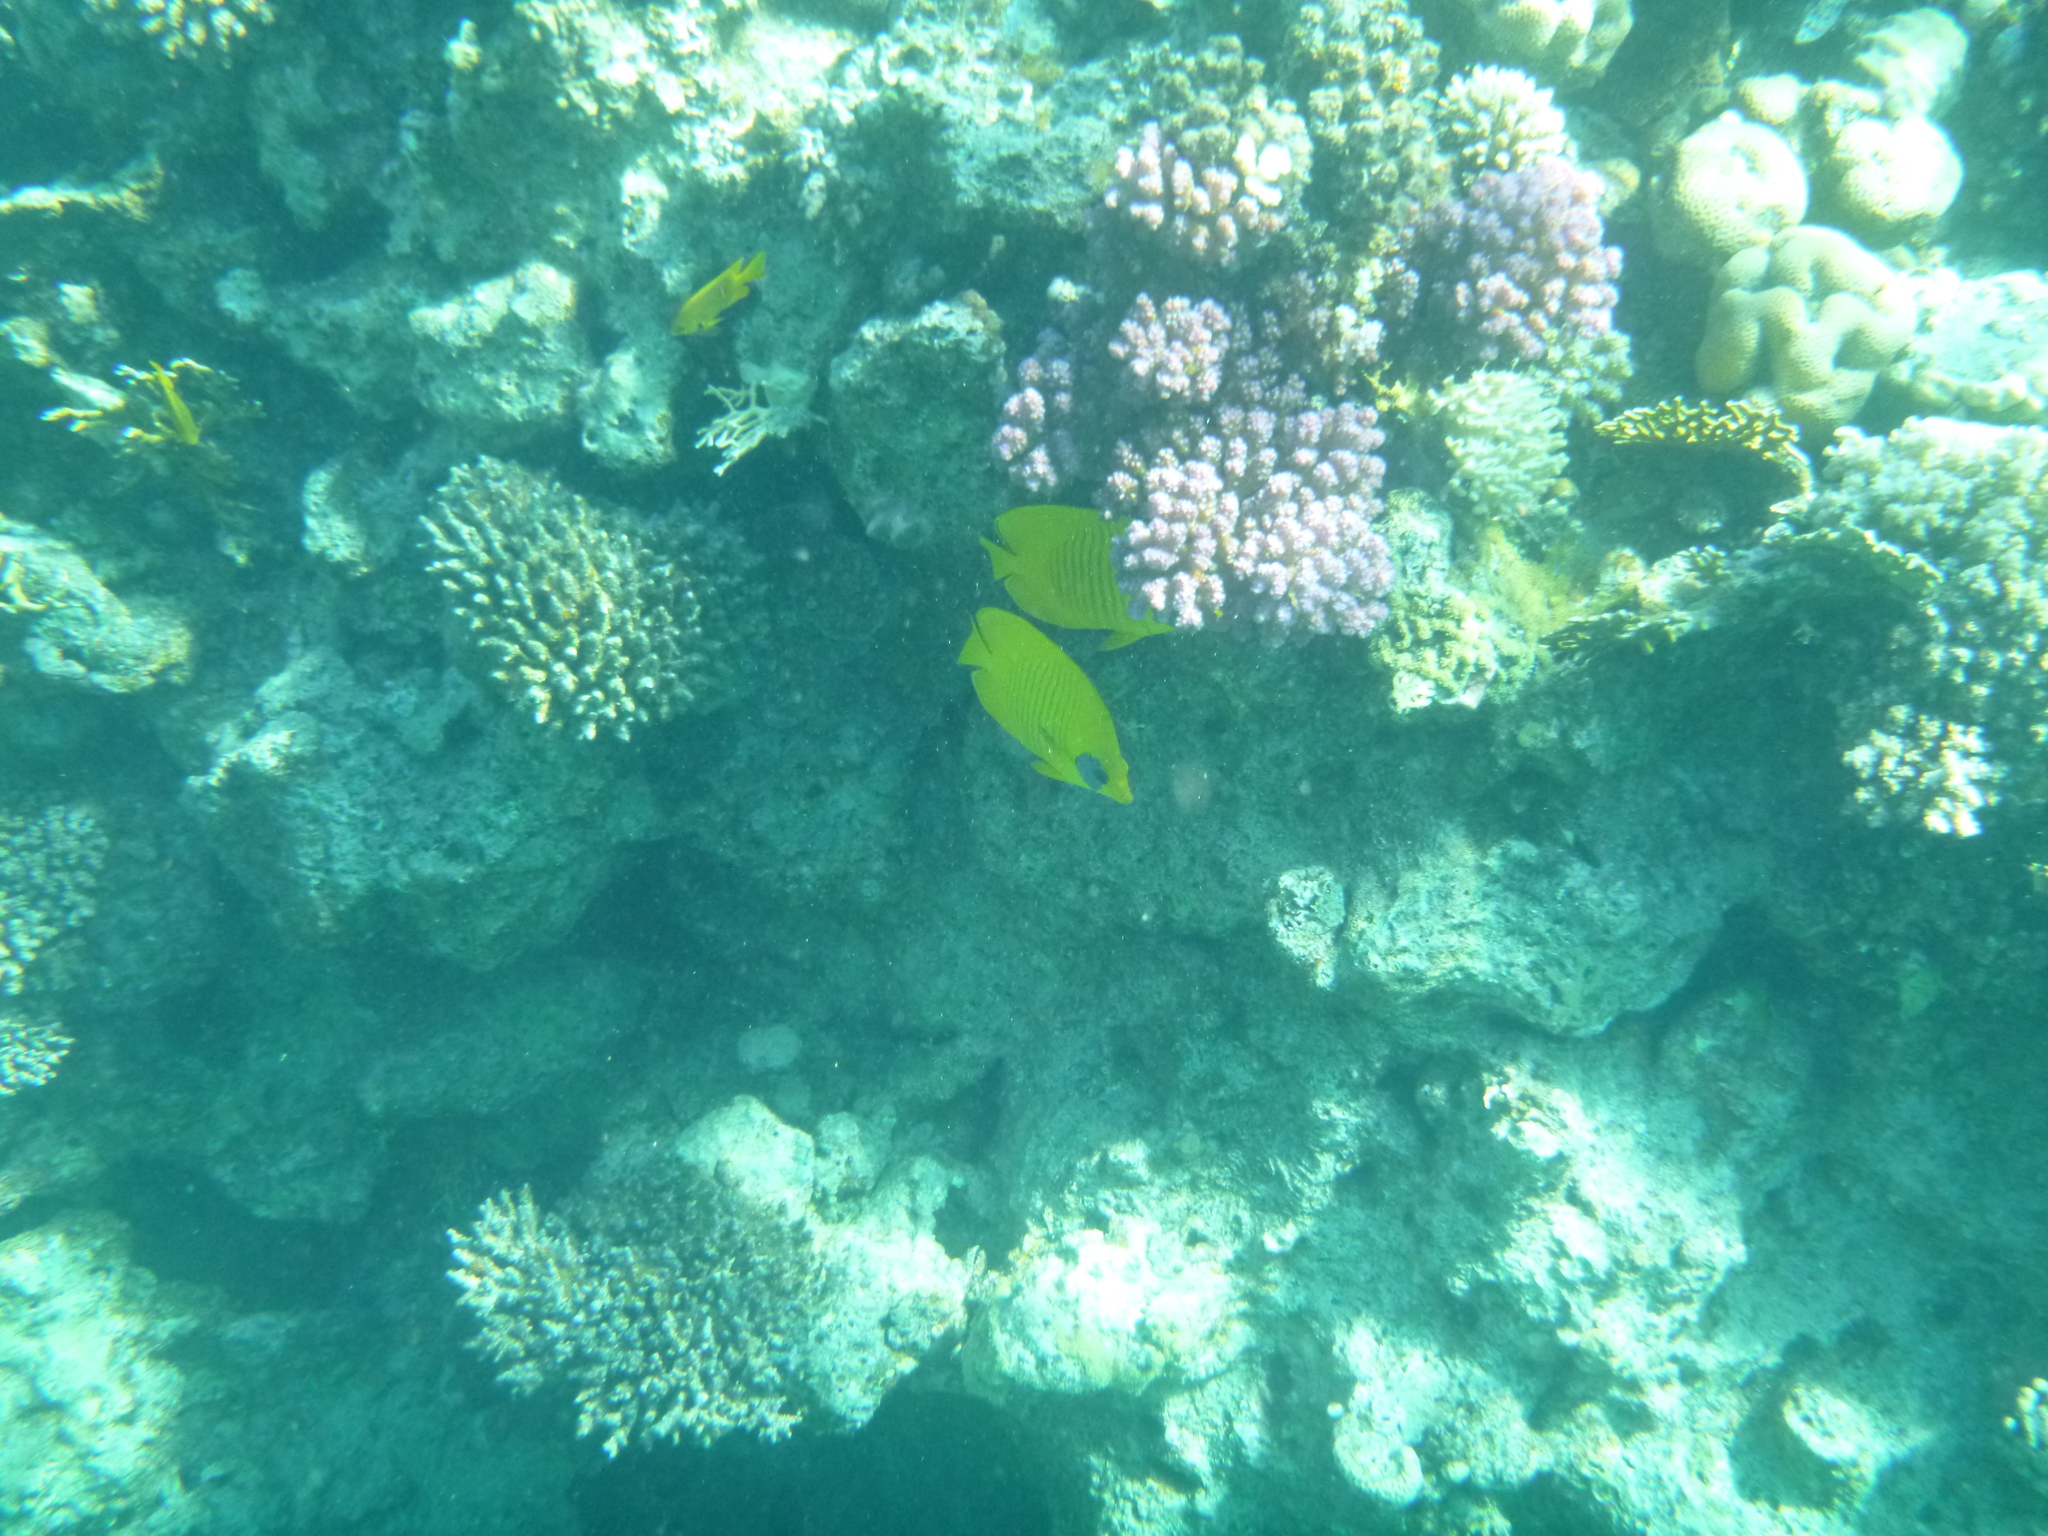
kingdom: Animalia
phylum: Chordata
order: Perciformes
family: Chaetodontidae
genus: Chaetodon
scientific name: Chaetodon semilarvatus
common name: Golden butterflyfish
